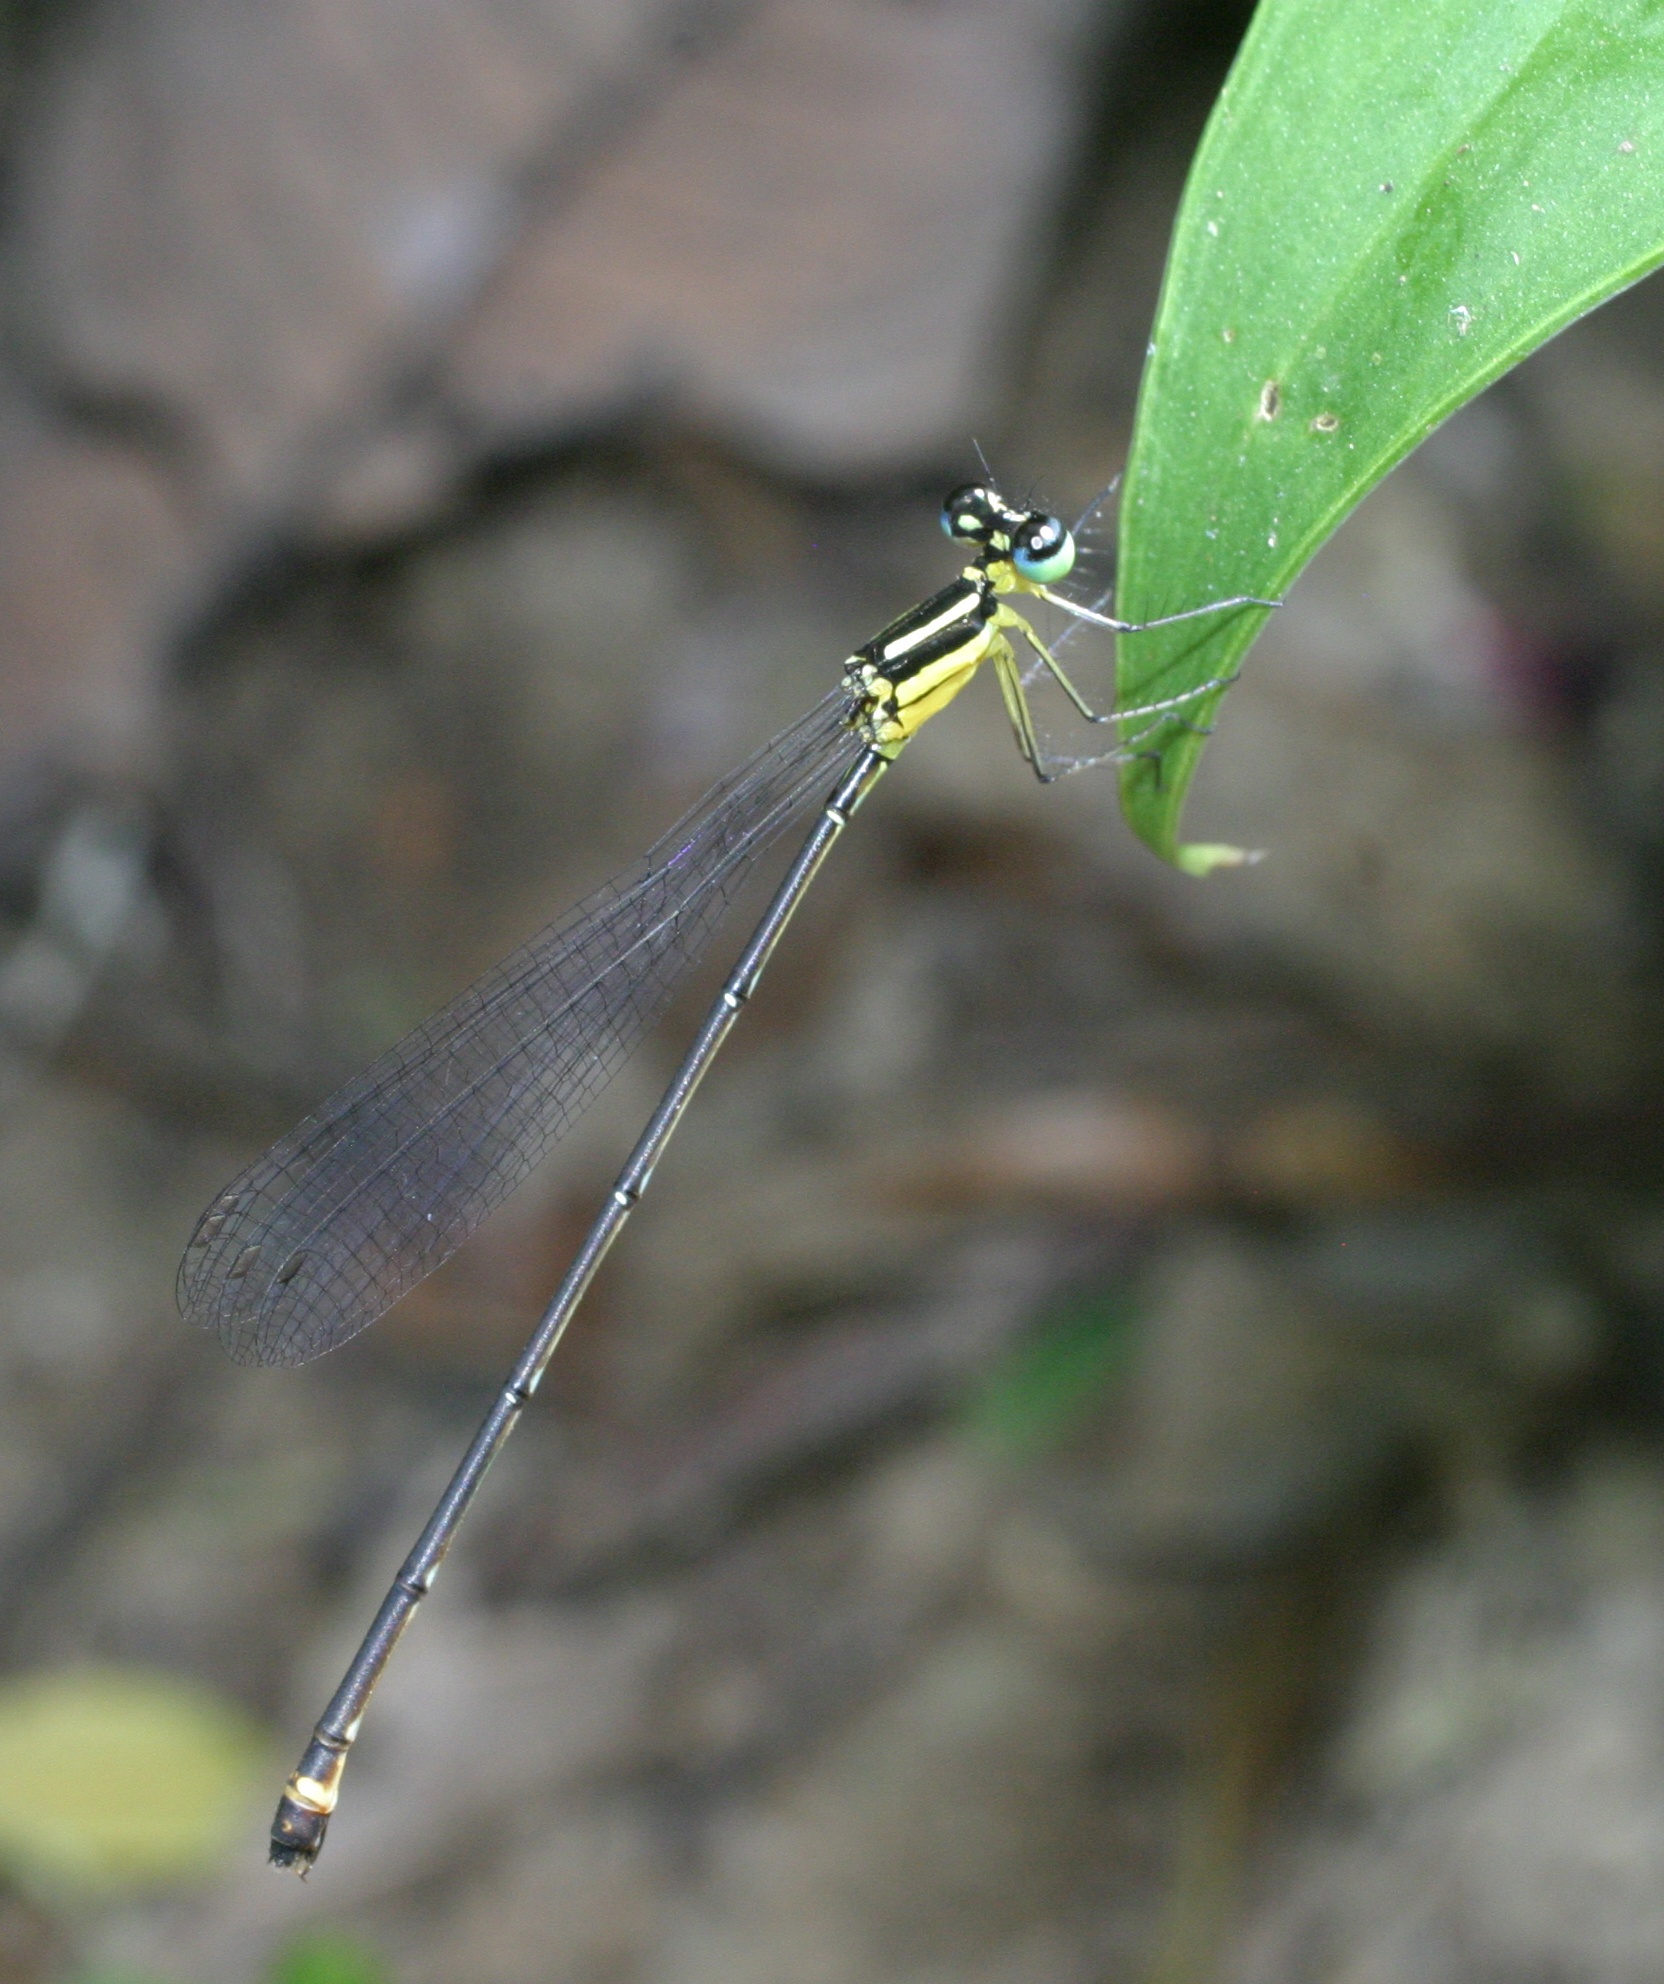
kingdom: Animalia
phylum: Arthropoda
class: Insecta
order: Odonata
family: Platycnemididae
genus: Coeliccia
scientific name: Coeliccia didyma
